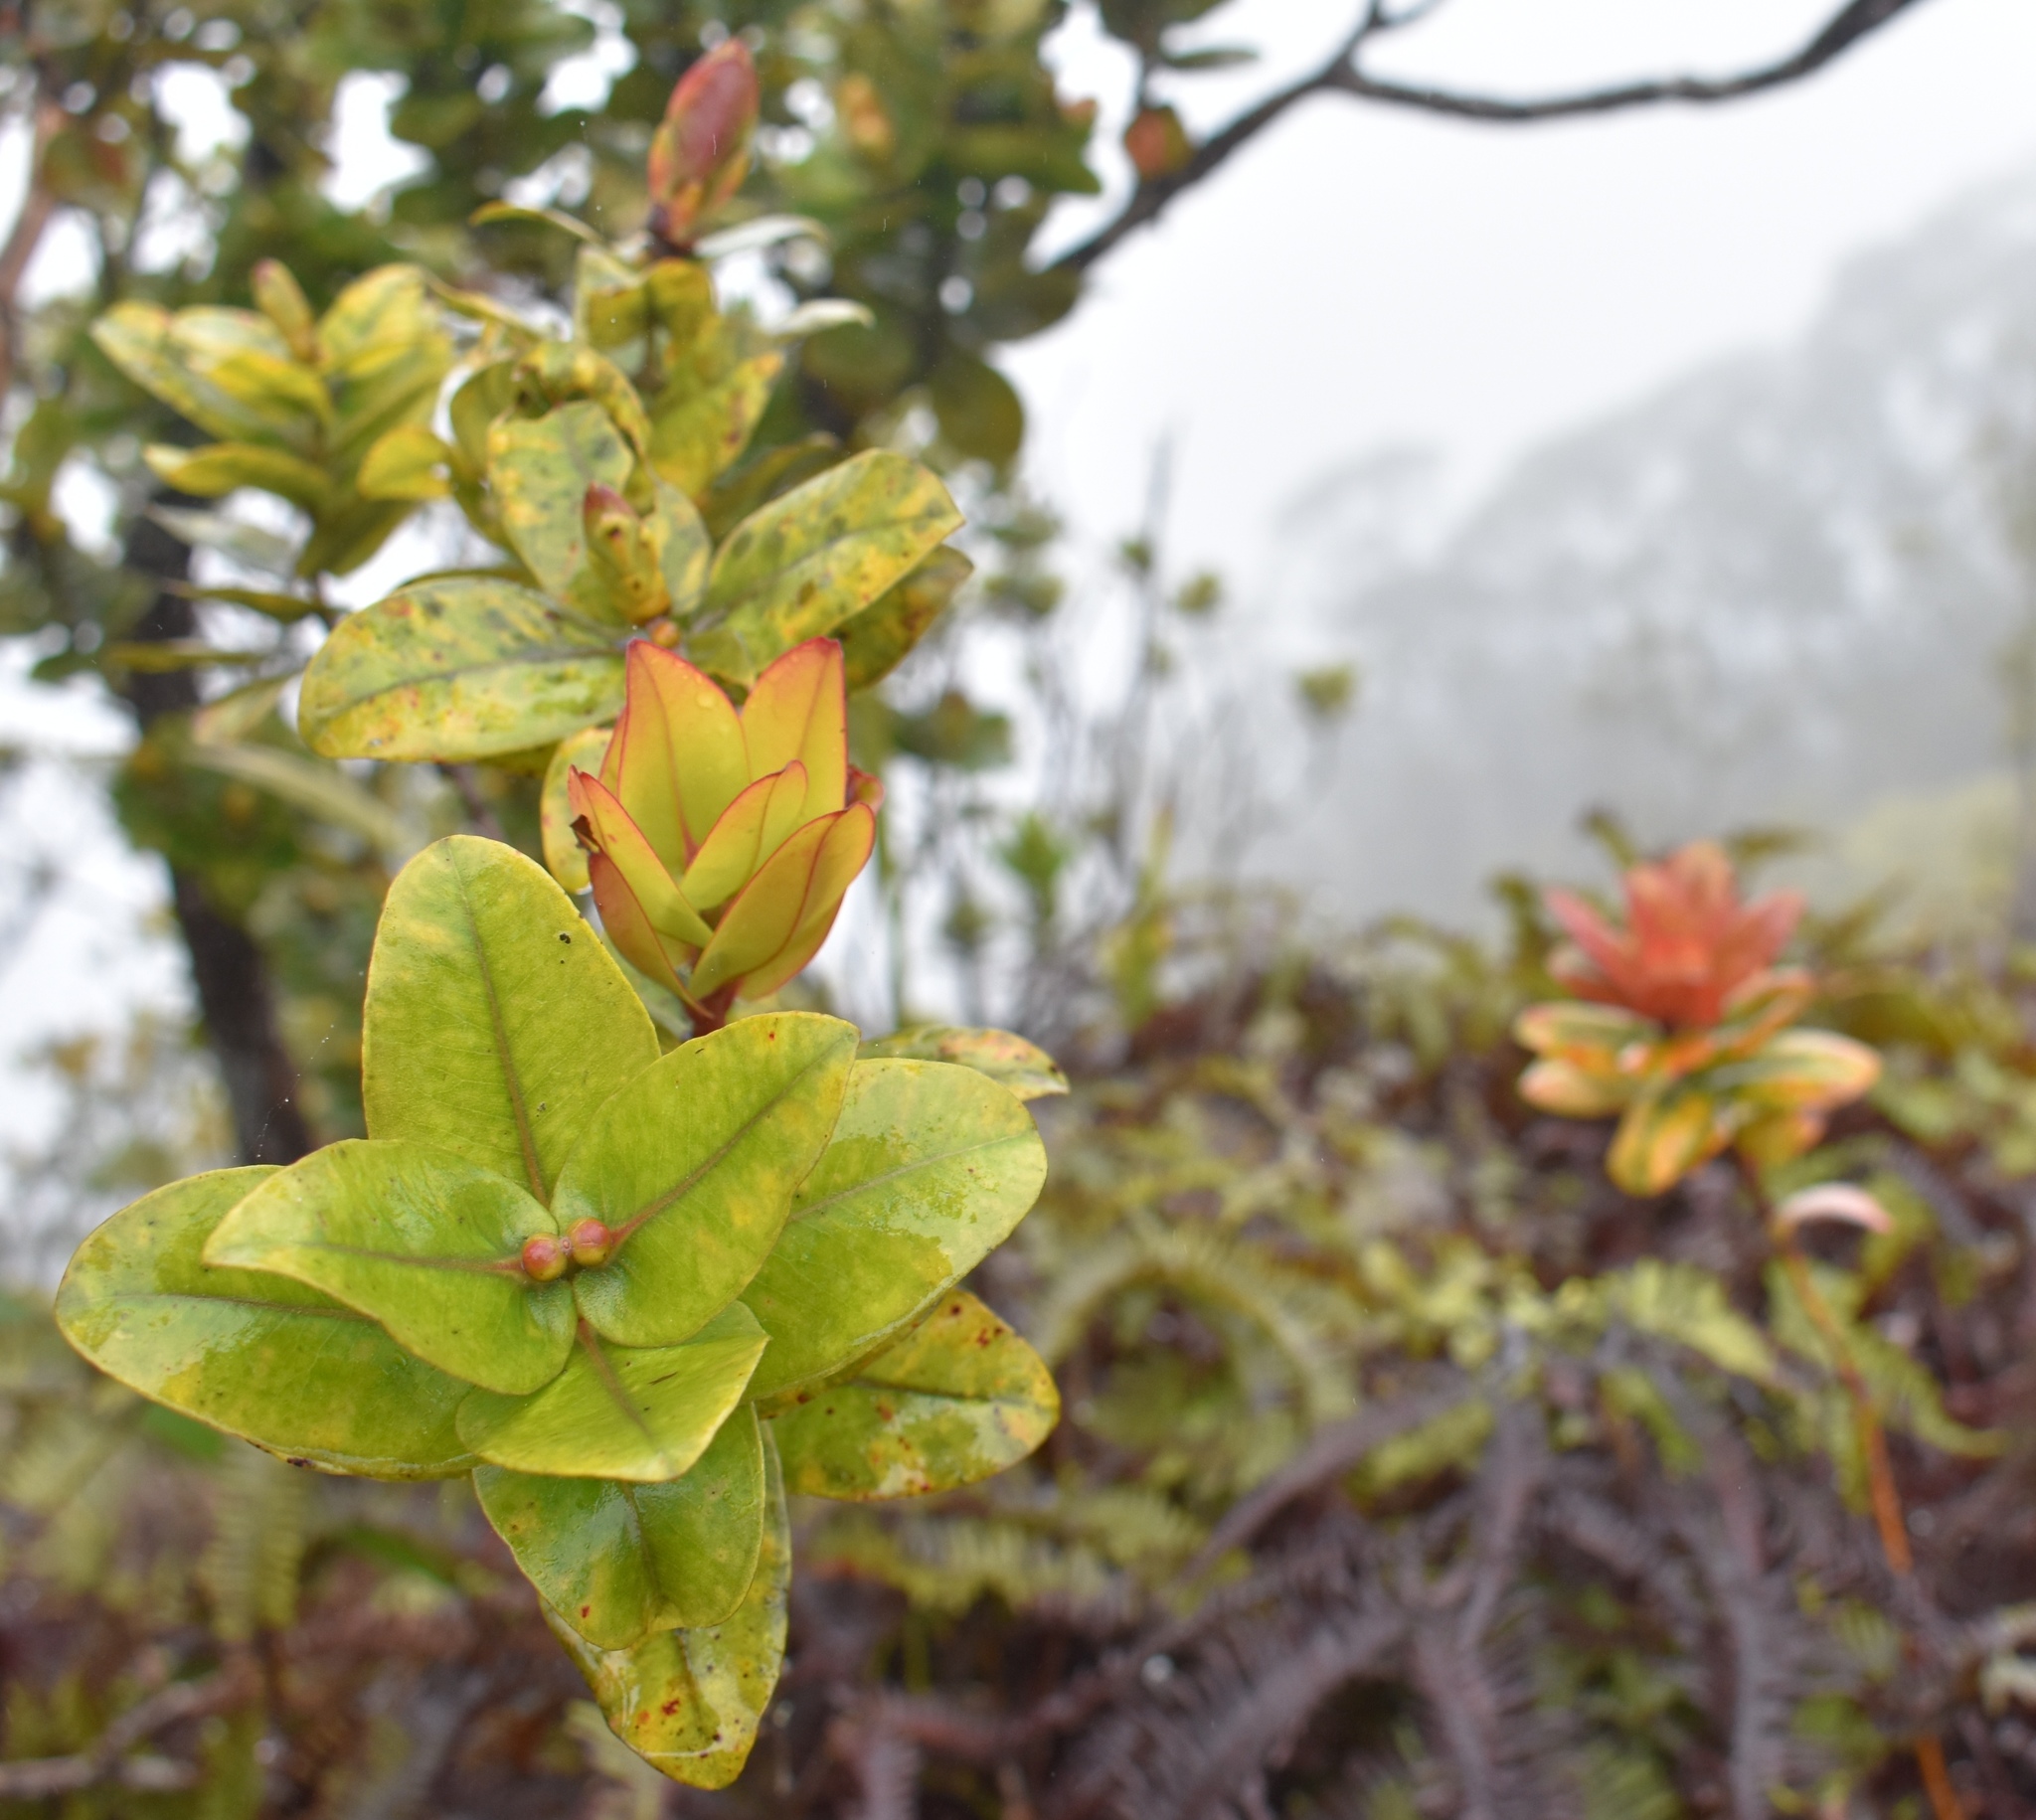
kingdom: Plantae
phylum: Tracheophyta
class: Magnoliopsida
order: Myrtales
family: Myrtaceae
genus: Metrosideros
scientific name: Metrosideros polymorpha
